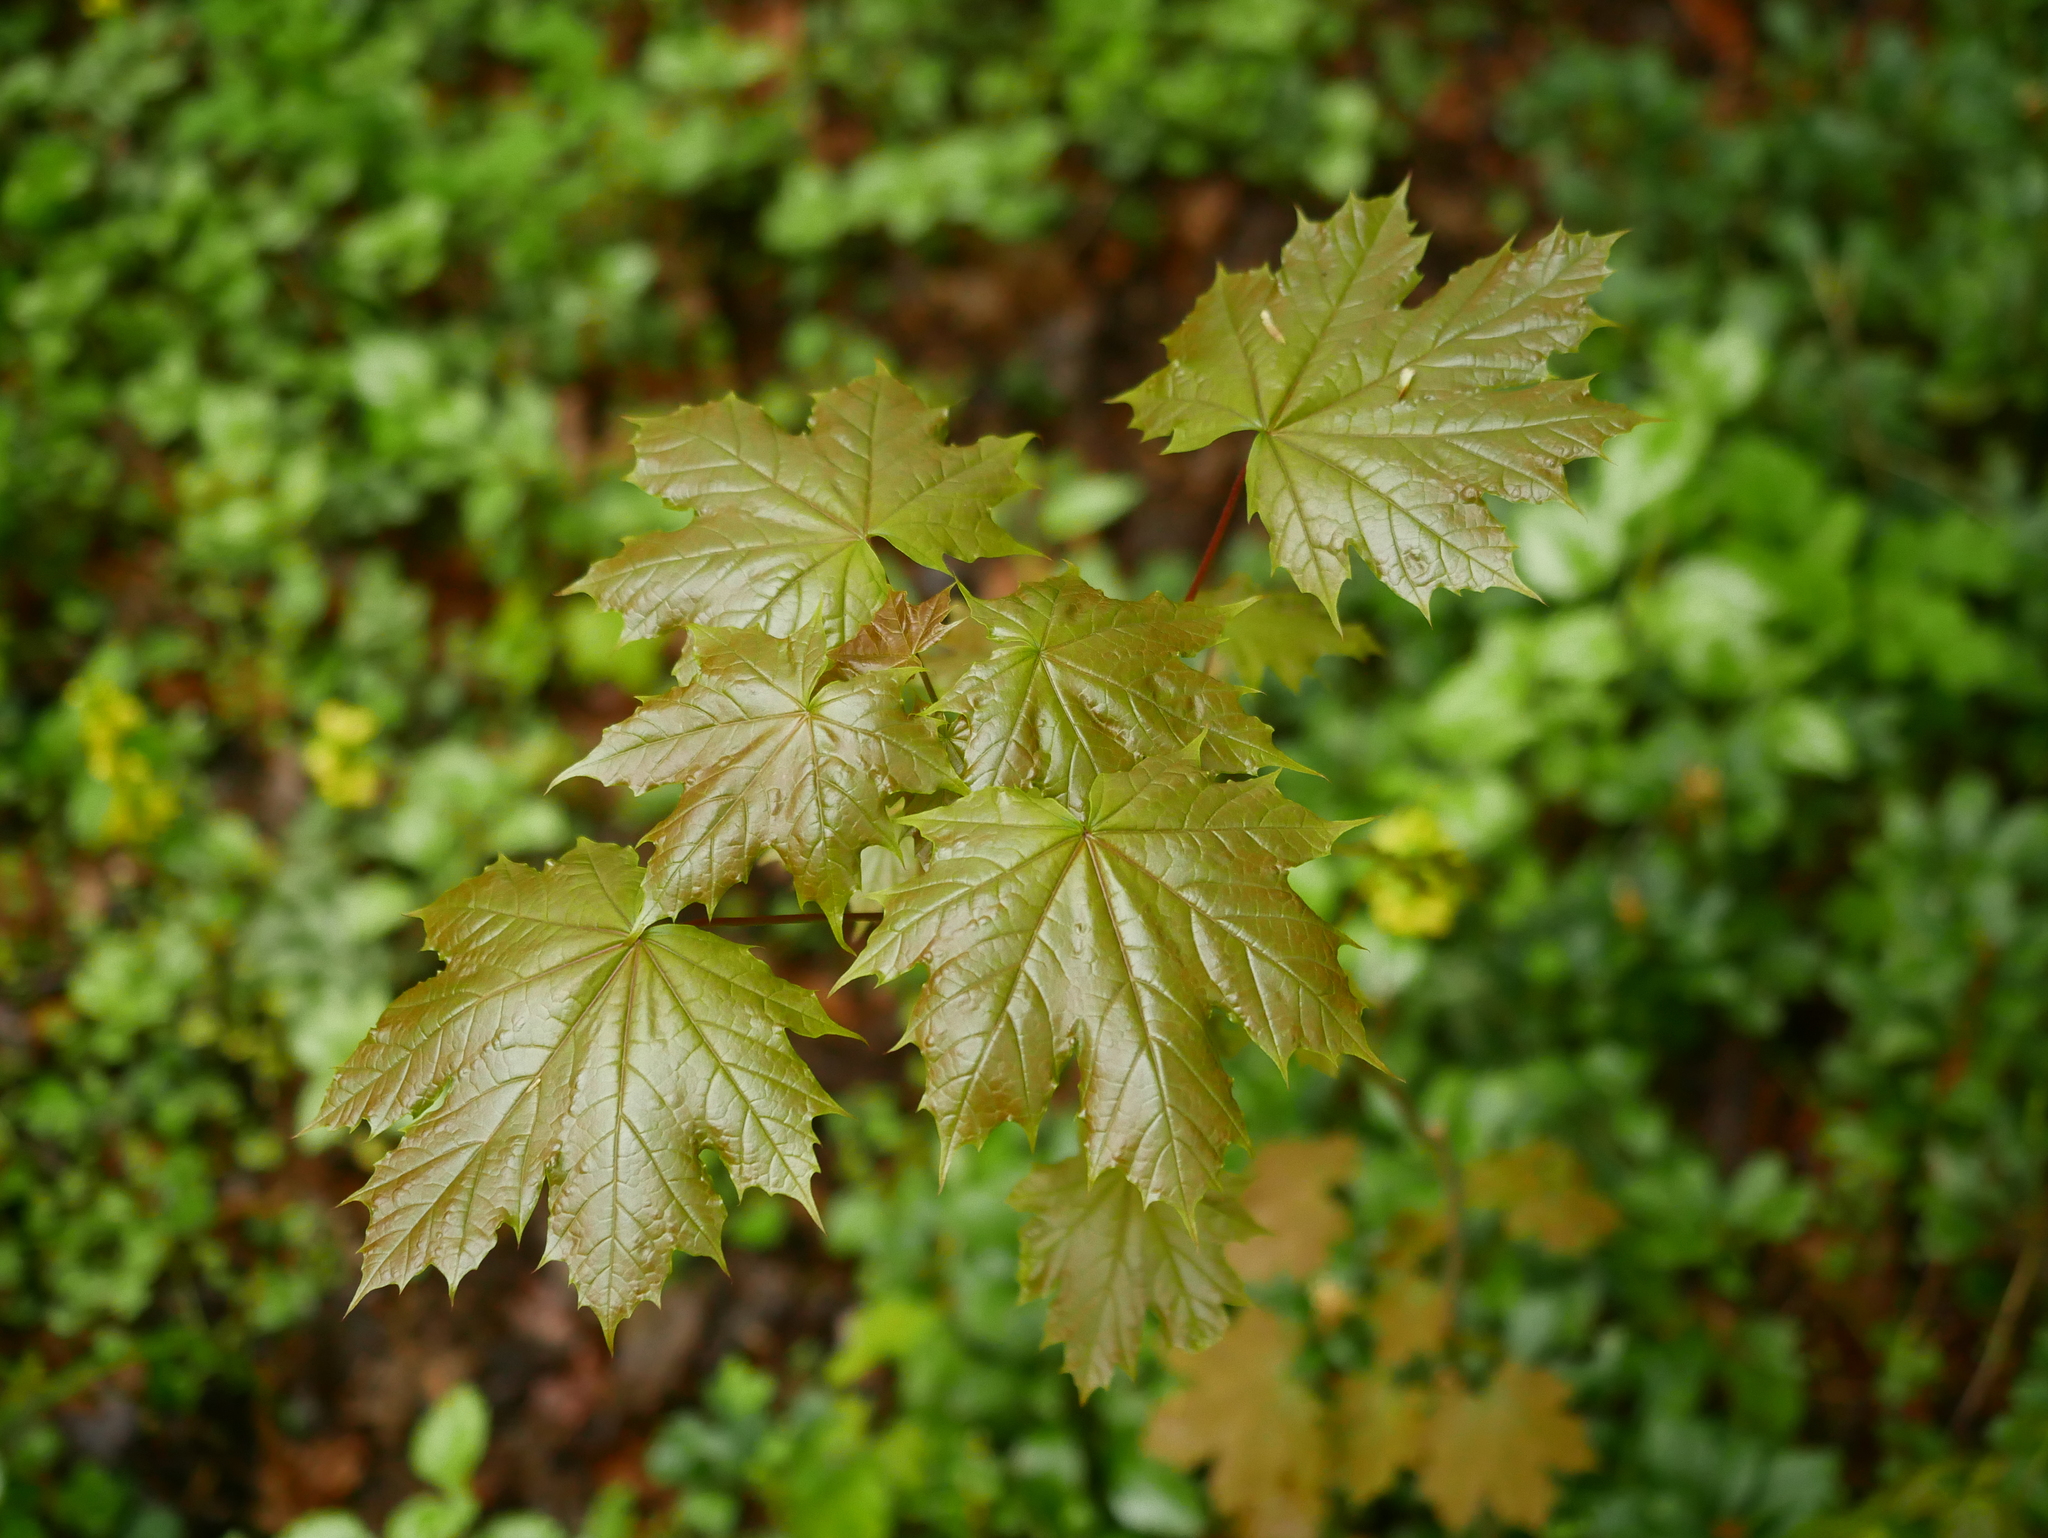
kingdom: Plantae
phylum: Tracheophyta
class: Magnoliopsida
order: Sapindales
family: Sapindaceae
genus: Acer
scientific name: Acer platanoides
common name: Norway maple
